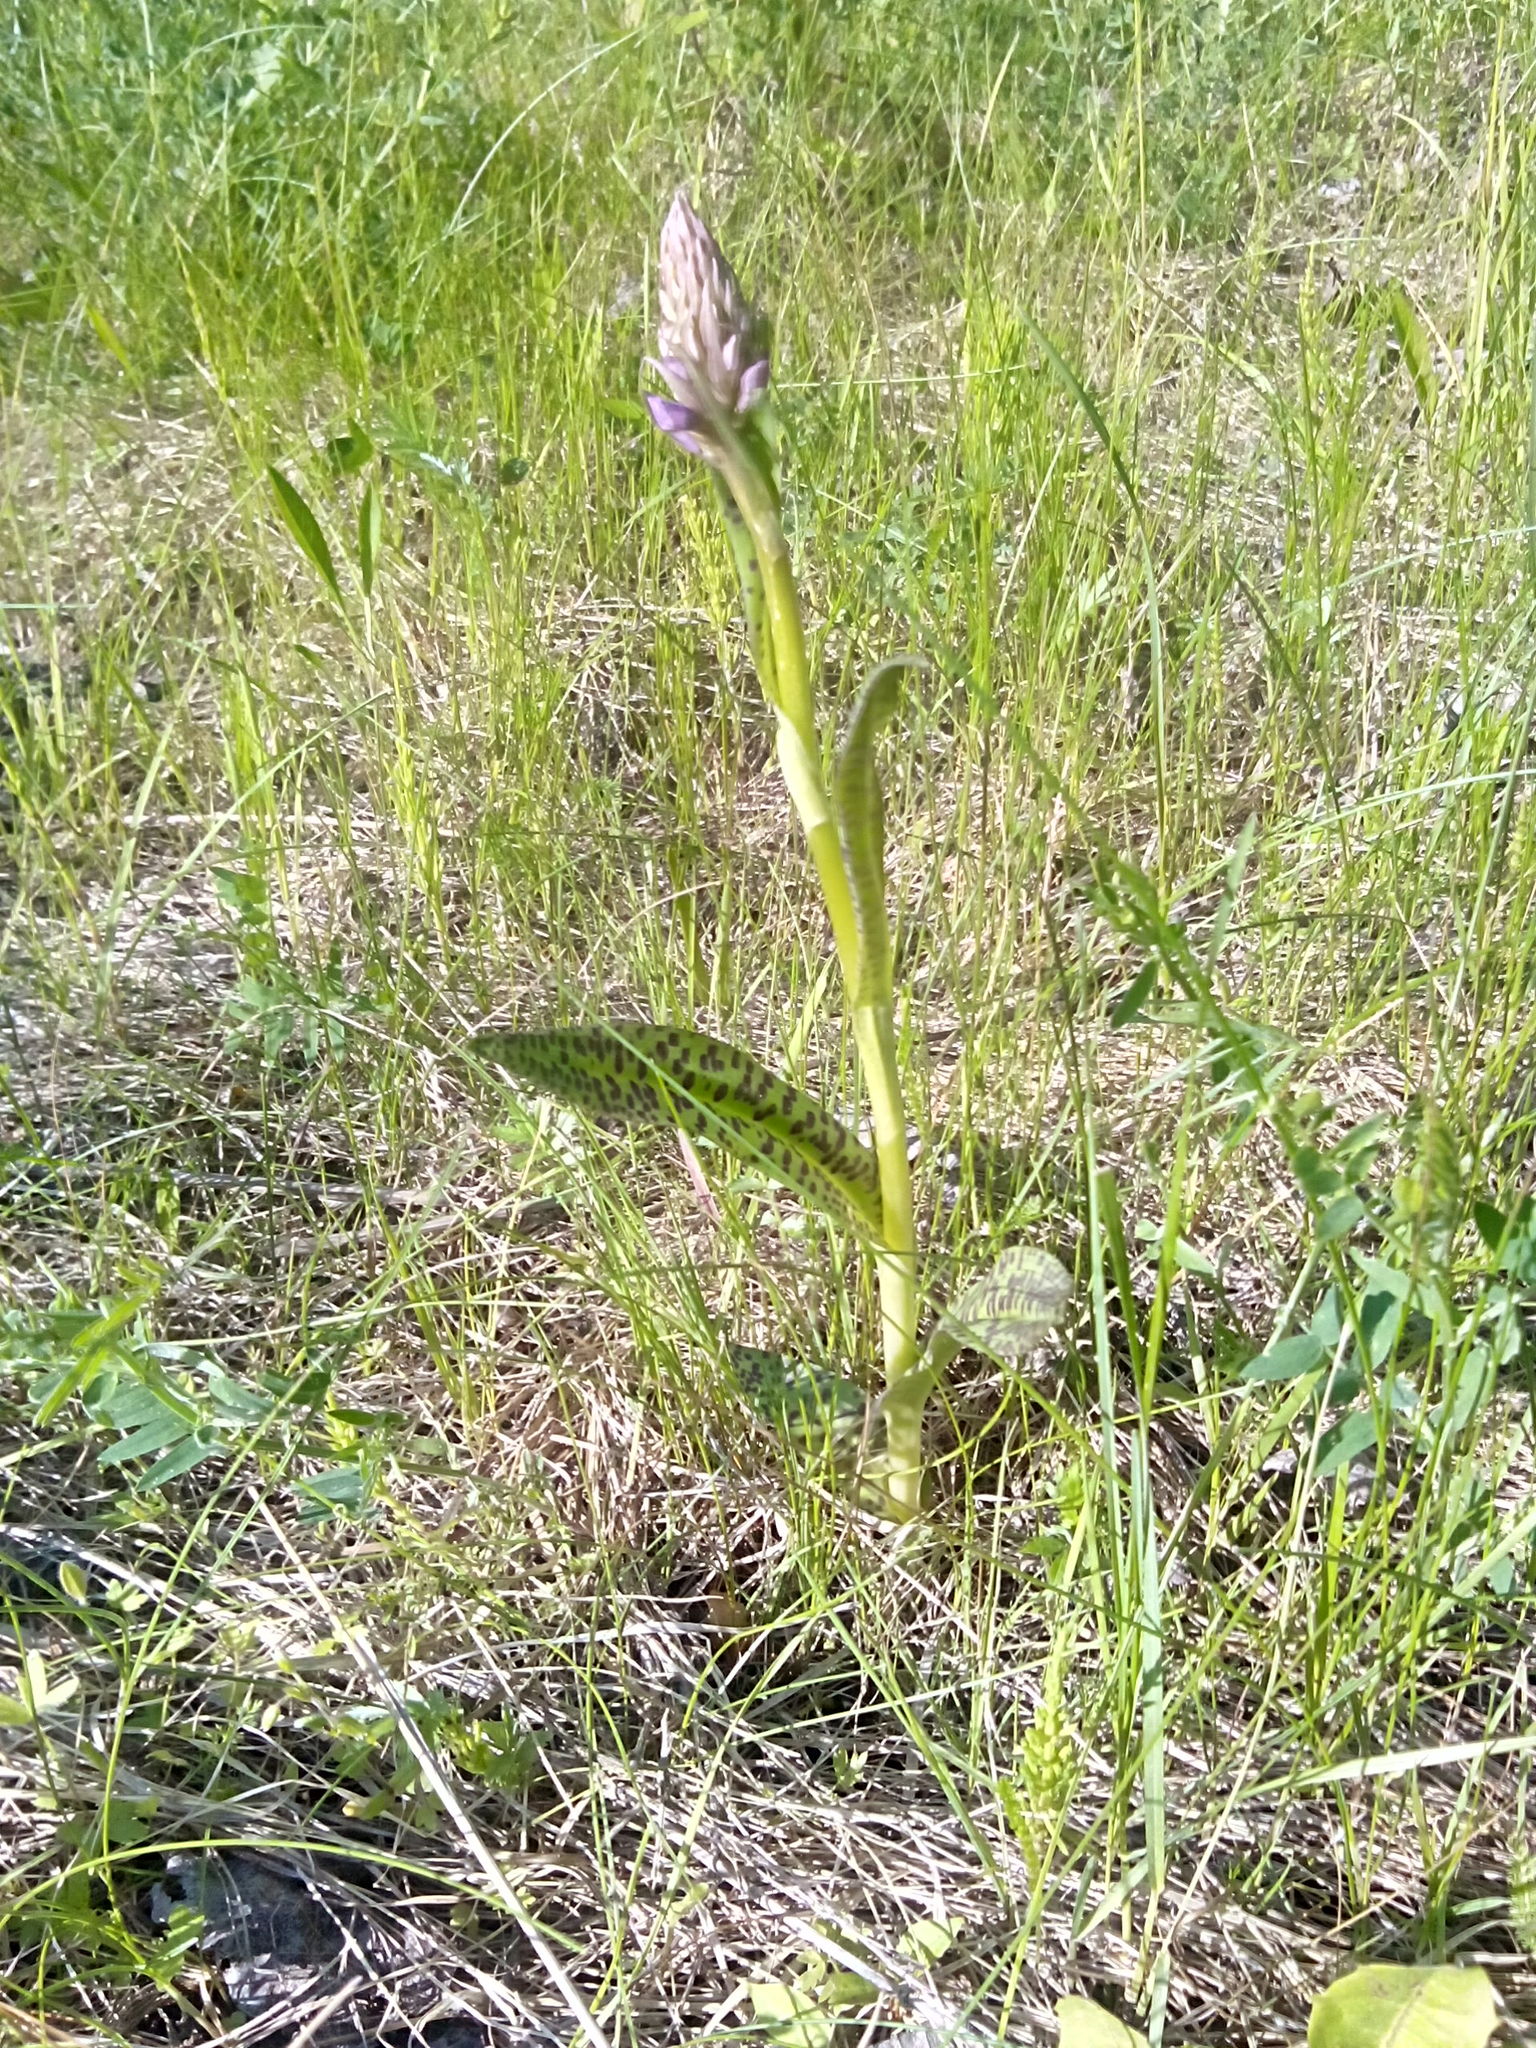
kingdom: Plantae
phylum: Tracheophyta
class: Liliopsida
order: Asparagales
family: Orchidaceae
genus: Dactylorhiza
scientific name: Dactylorhiza majalis
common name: Marsh orchid
